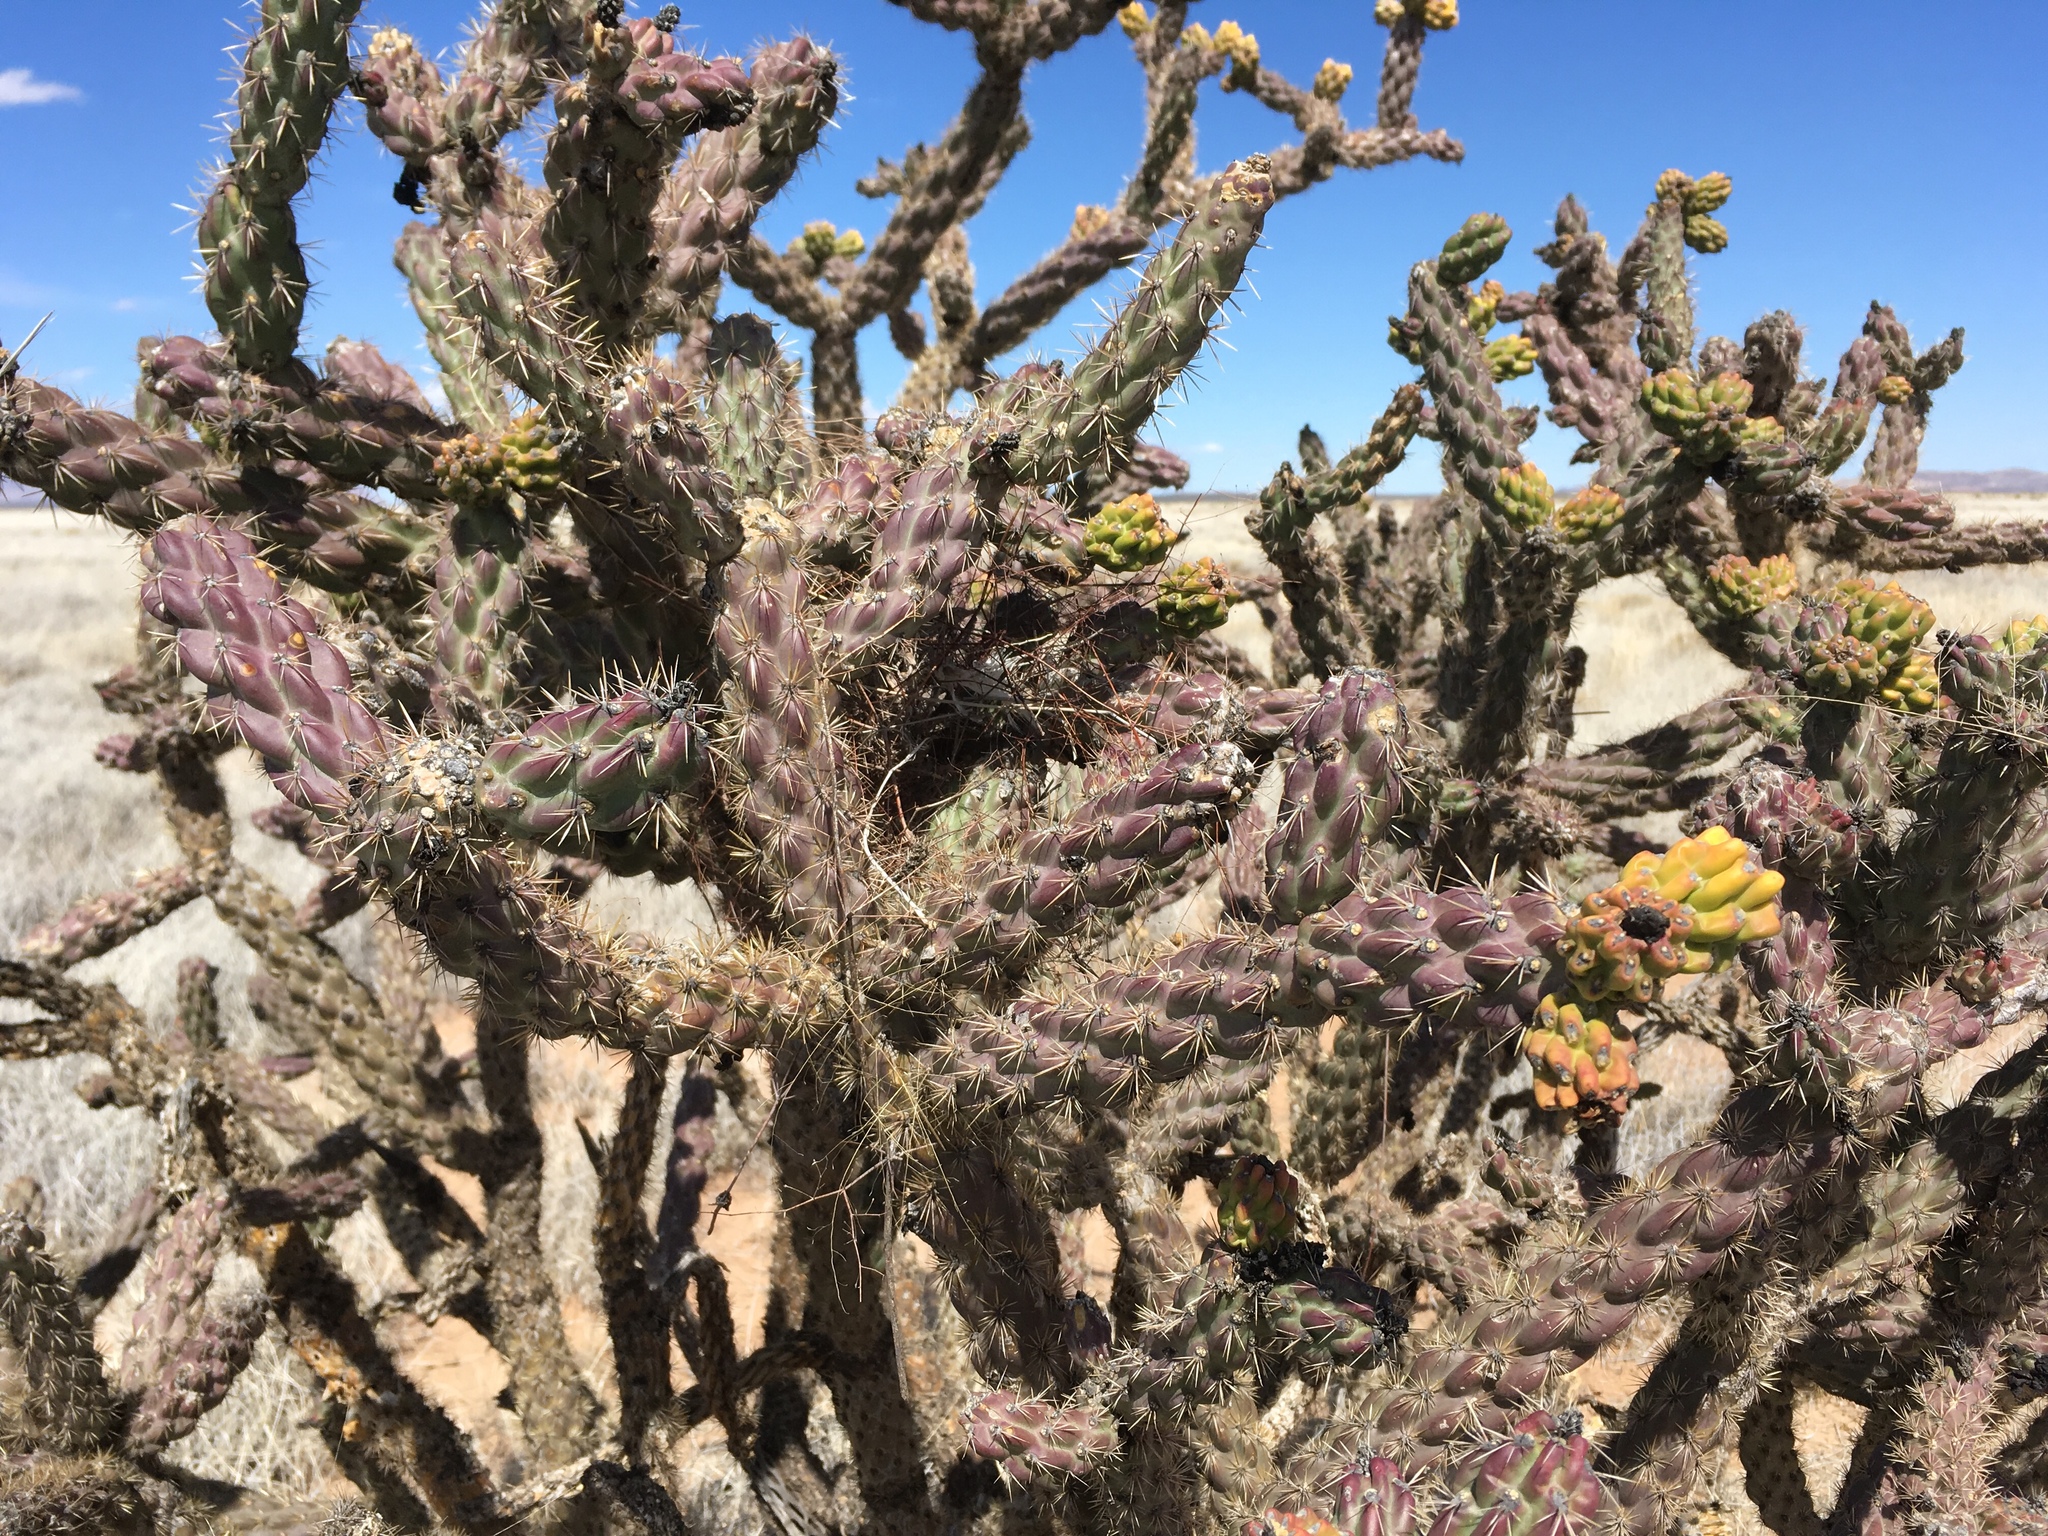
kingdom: Plantae
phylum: Tracheophyta
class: Magnoliopsida
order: Caryophyllales
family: Cactaceae
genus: Cylindropuntia
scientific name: Cylindropuntia imbricata
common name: Candelabrum cactus
